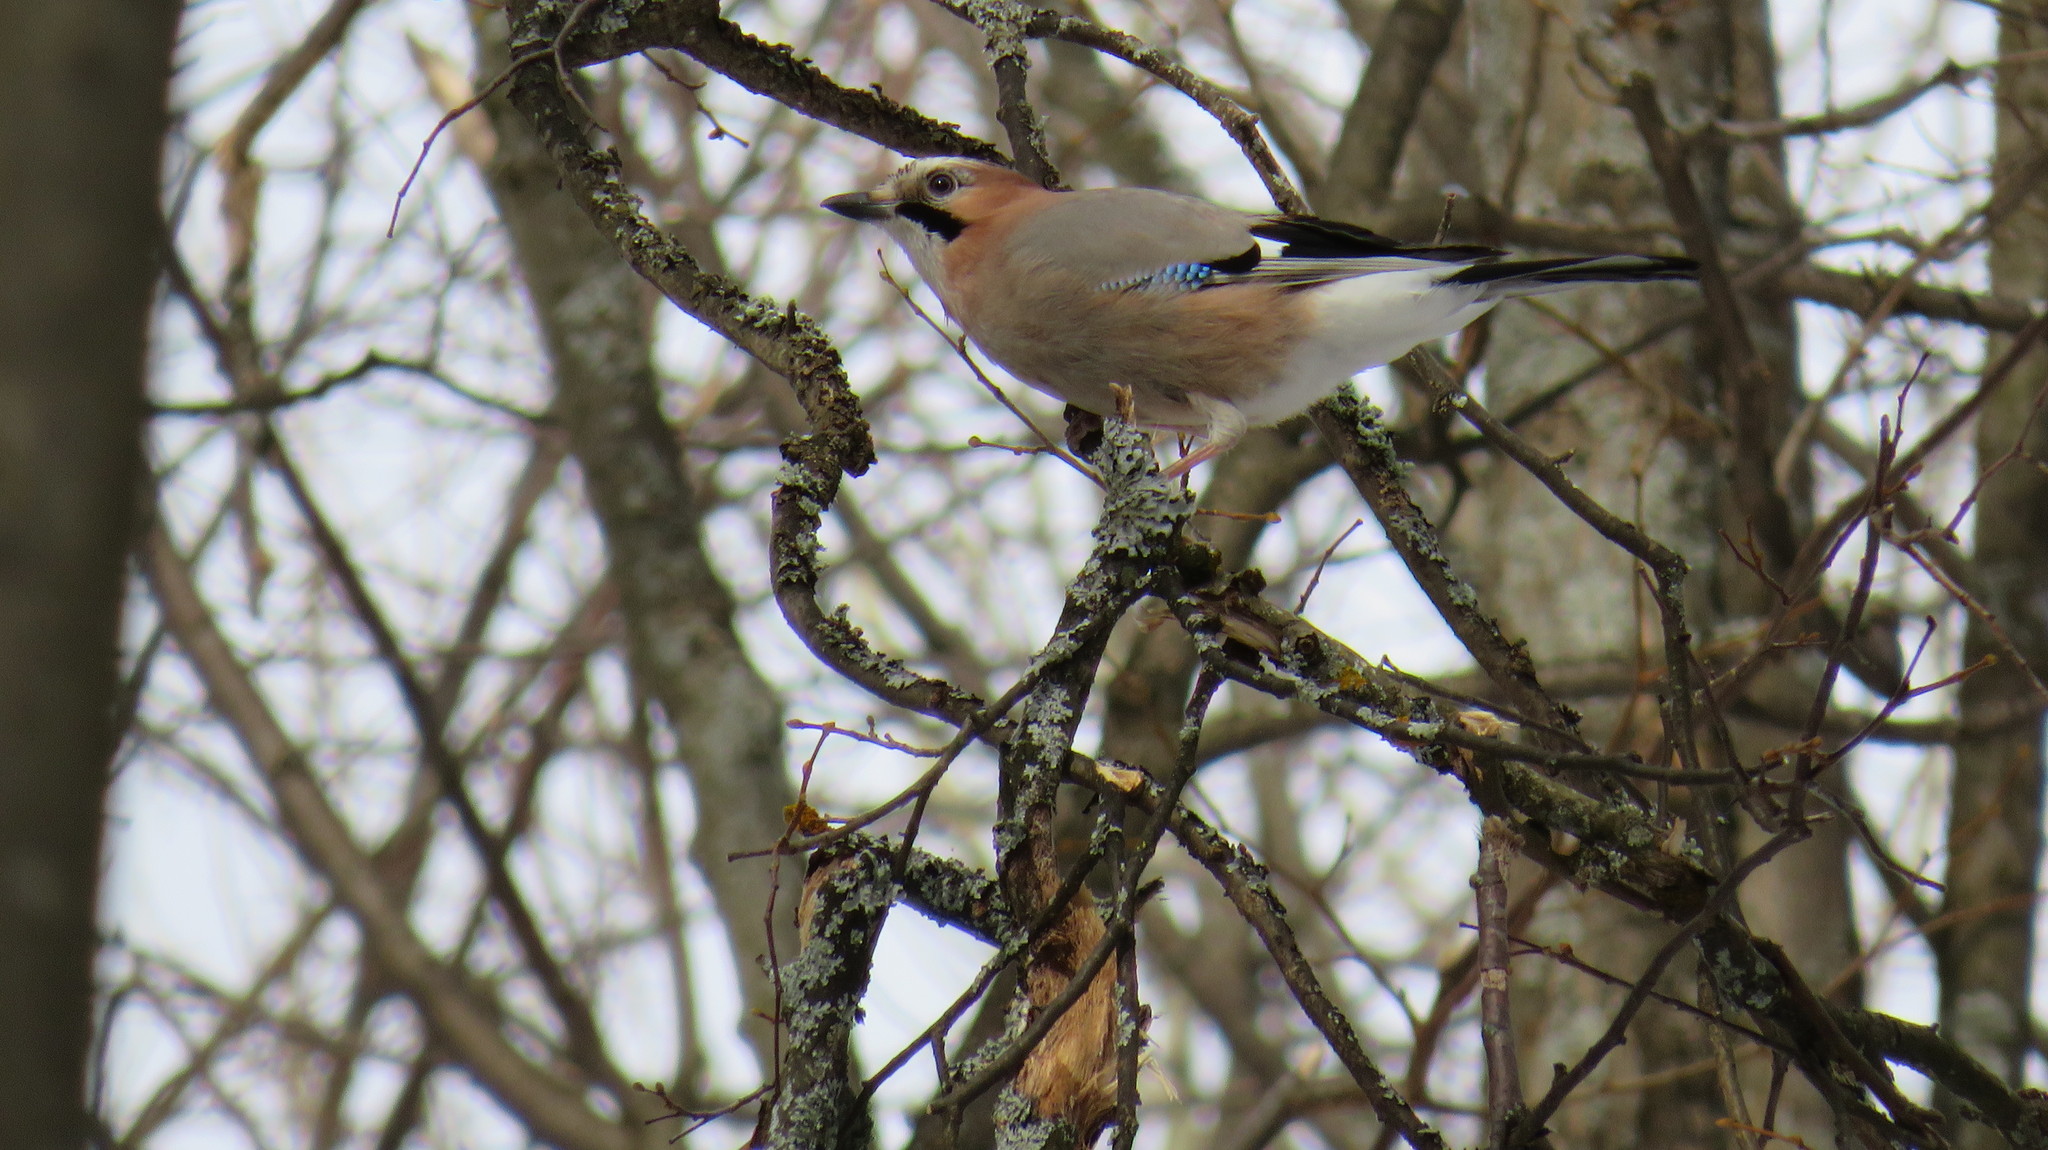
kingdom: Animalia
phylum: Chordata
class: Aves
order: Passeriformes
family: Corvidae
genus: Garrulus
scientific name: Garrulus glandarius
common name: Eurasian jay
